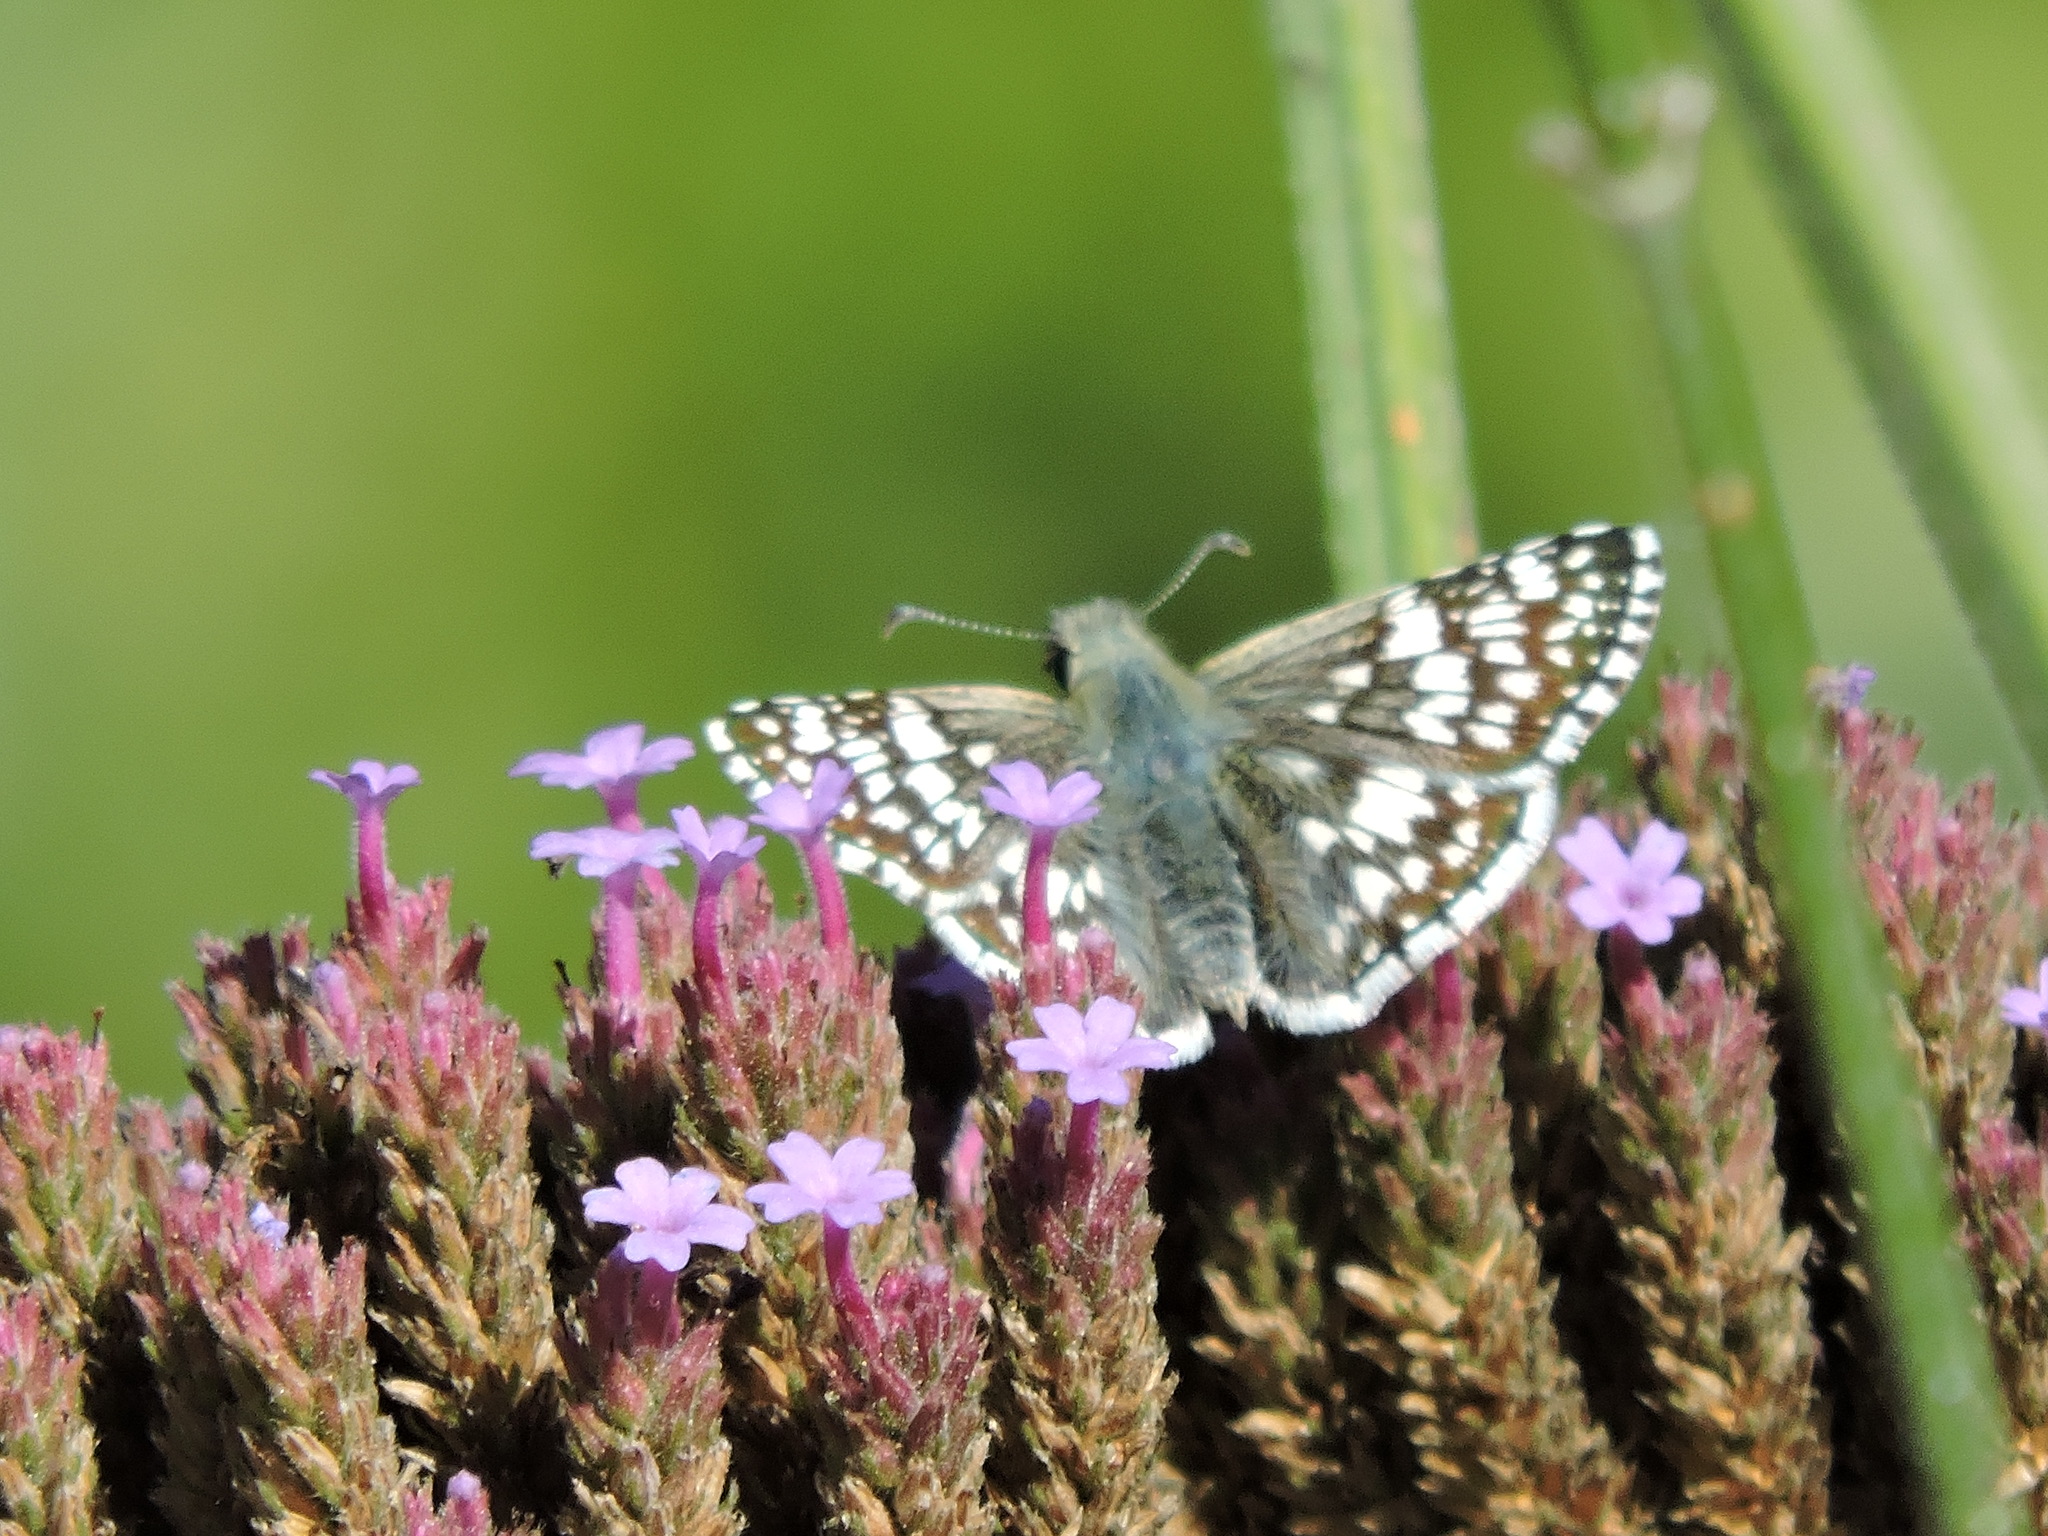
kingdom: Animalia
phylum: Arthropoda
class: Insecta
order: Lepidoptera
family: Hesperiidae
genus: Burnsius
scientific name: Burnsius communis
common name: Common checkered-skipper
